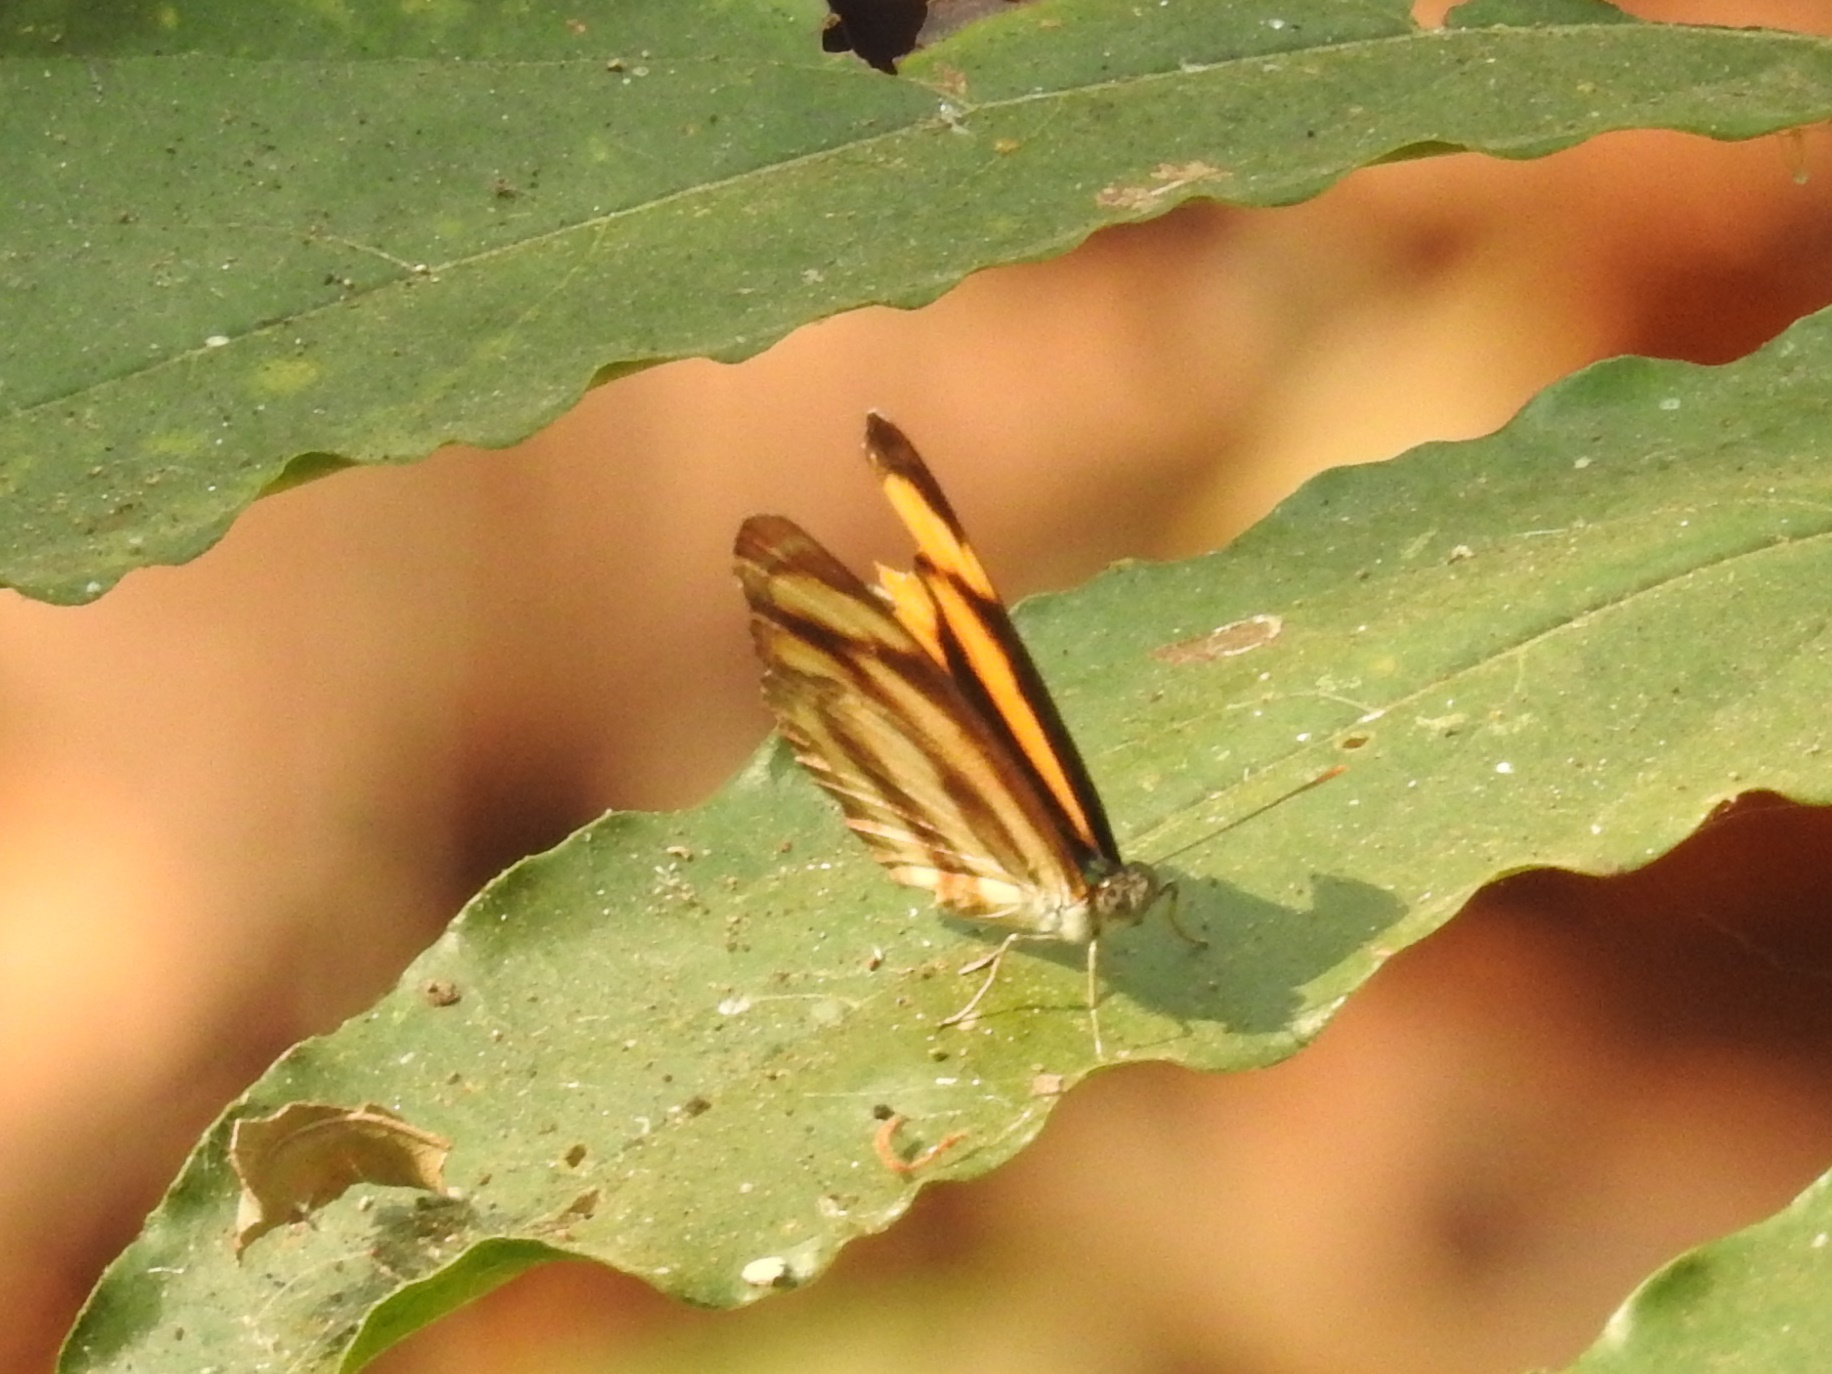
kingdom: Animalia
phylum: Arthropoda
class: Insecta
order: Lepidoptera
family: Nymphalidae
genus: Pantoporia
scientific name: Pantoporia hordonia
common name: Common lascar
